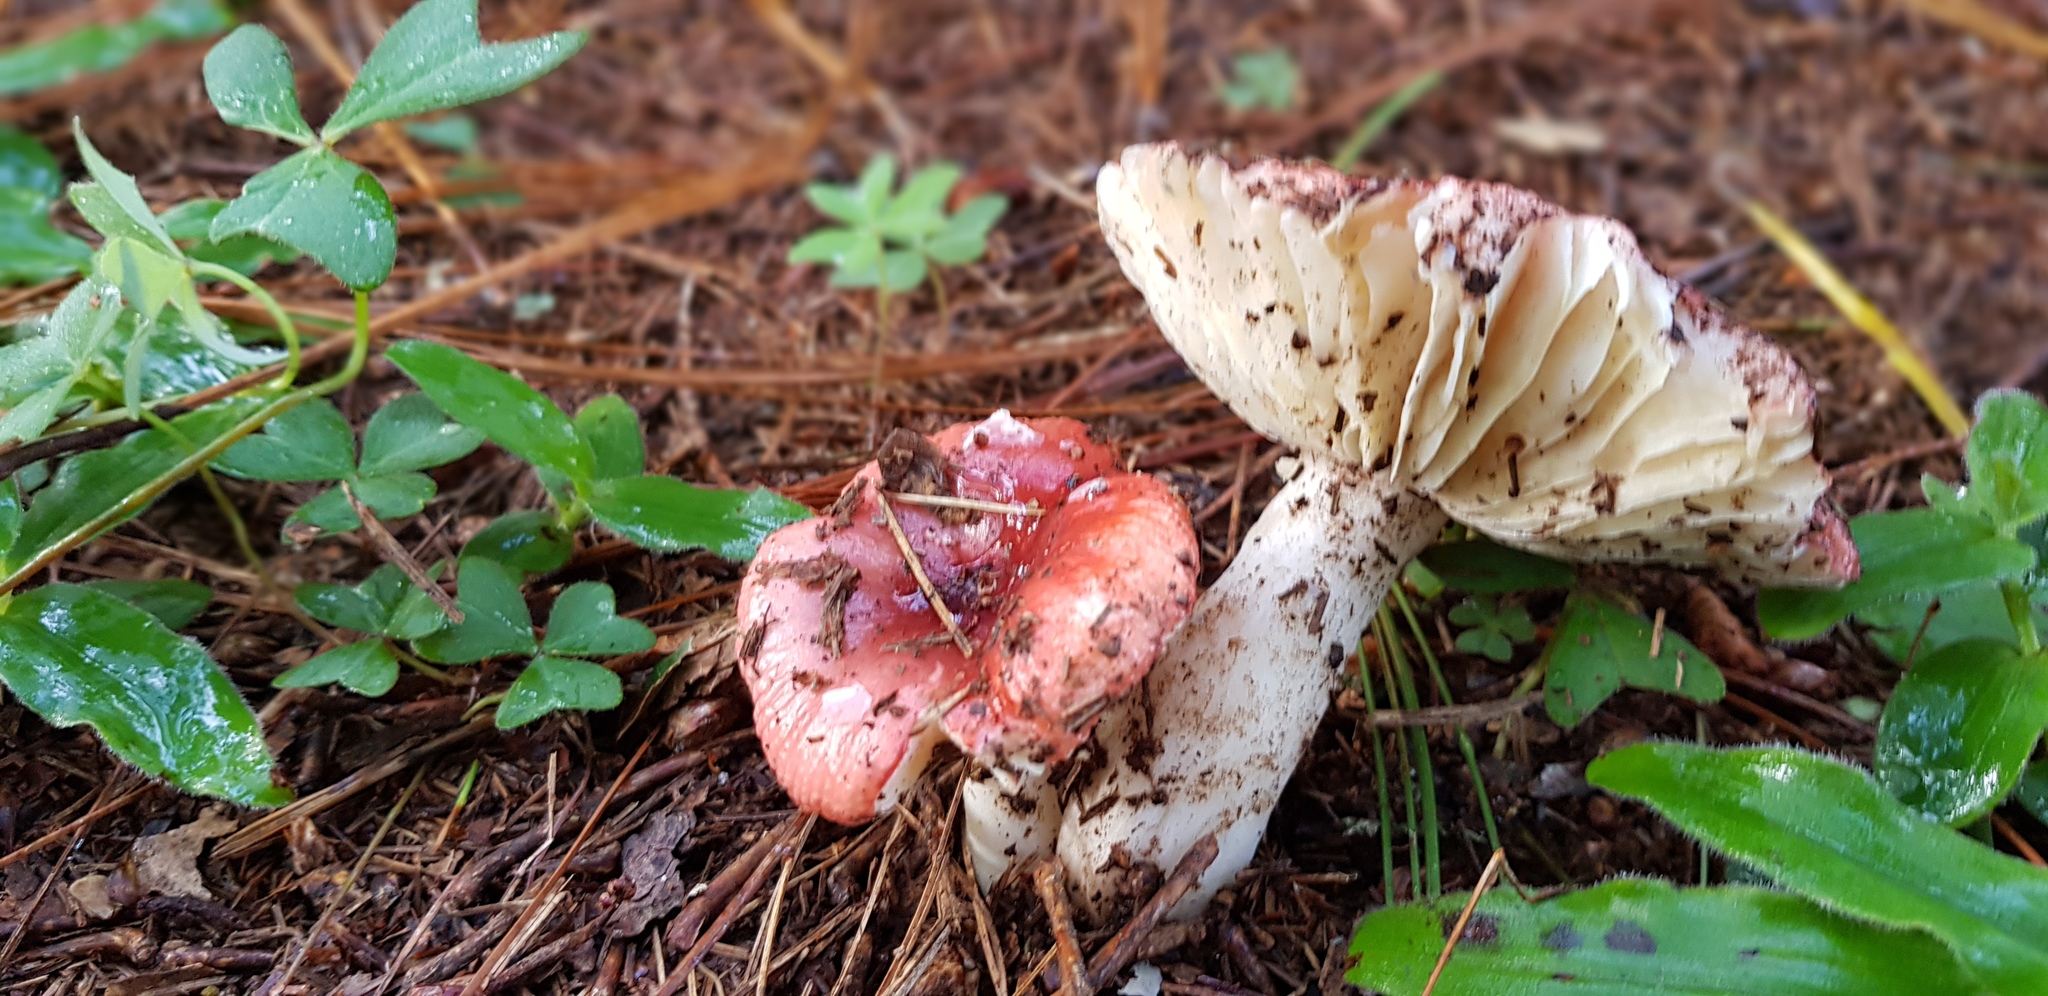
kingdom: Fungi
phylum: Basidiomycota
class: Agaricomycetes
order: Russulales
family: Russulaceae
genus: Russula
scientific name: Russula sanguinea
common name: Bloody brittlegill
